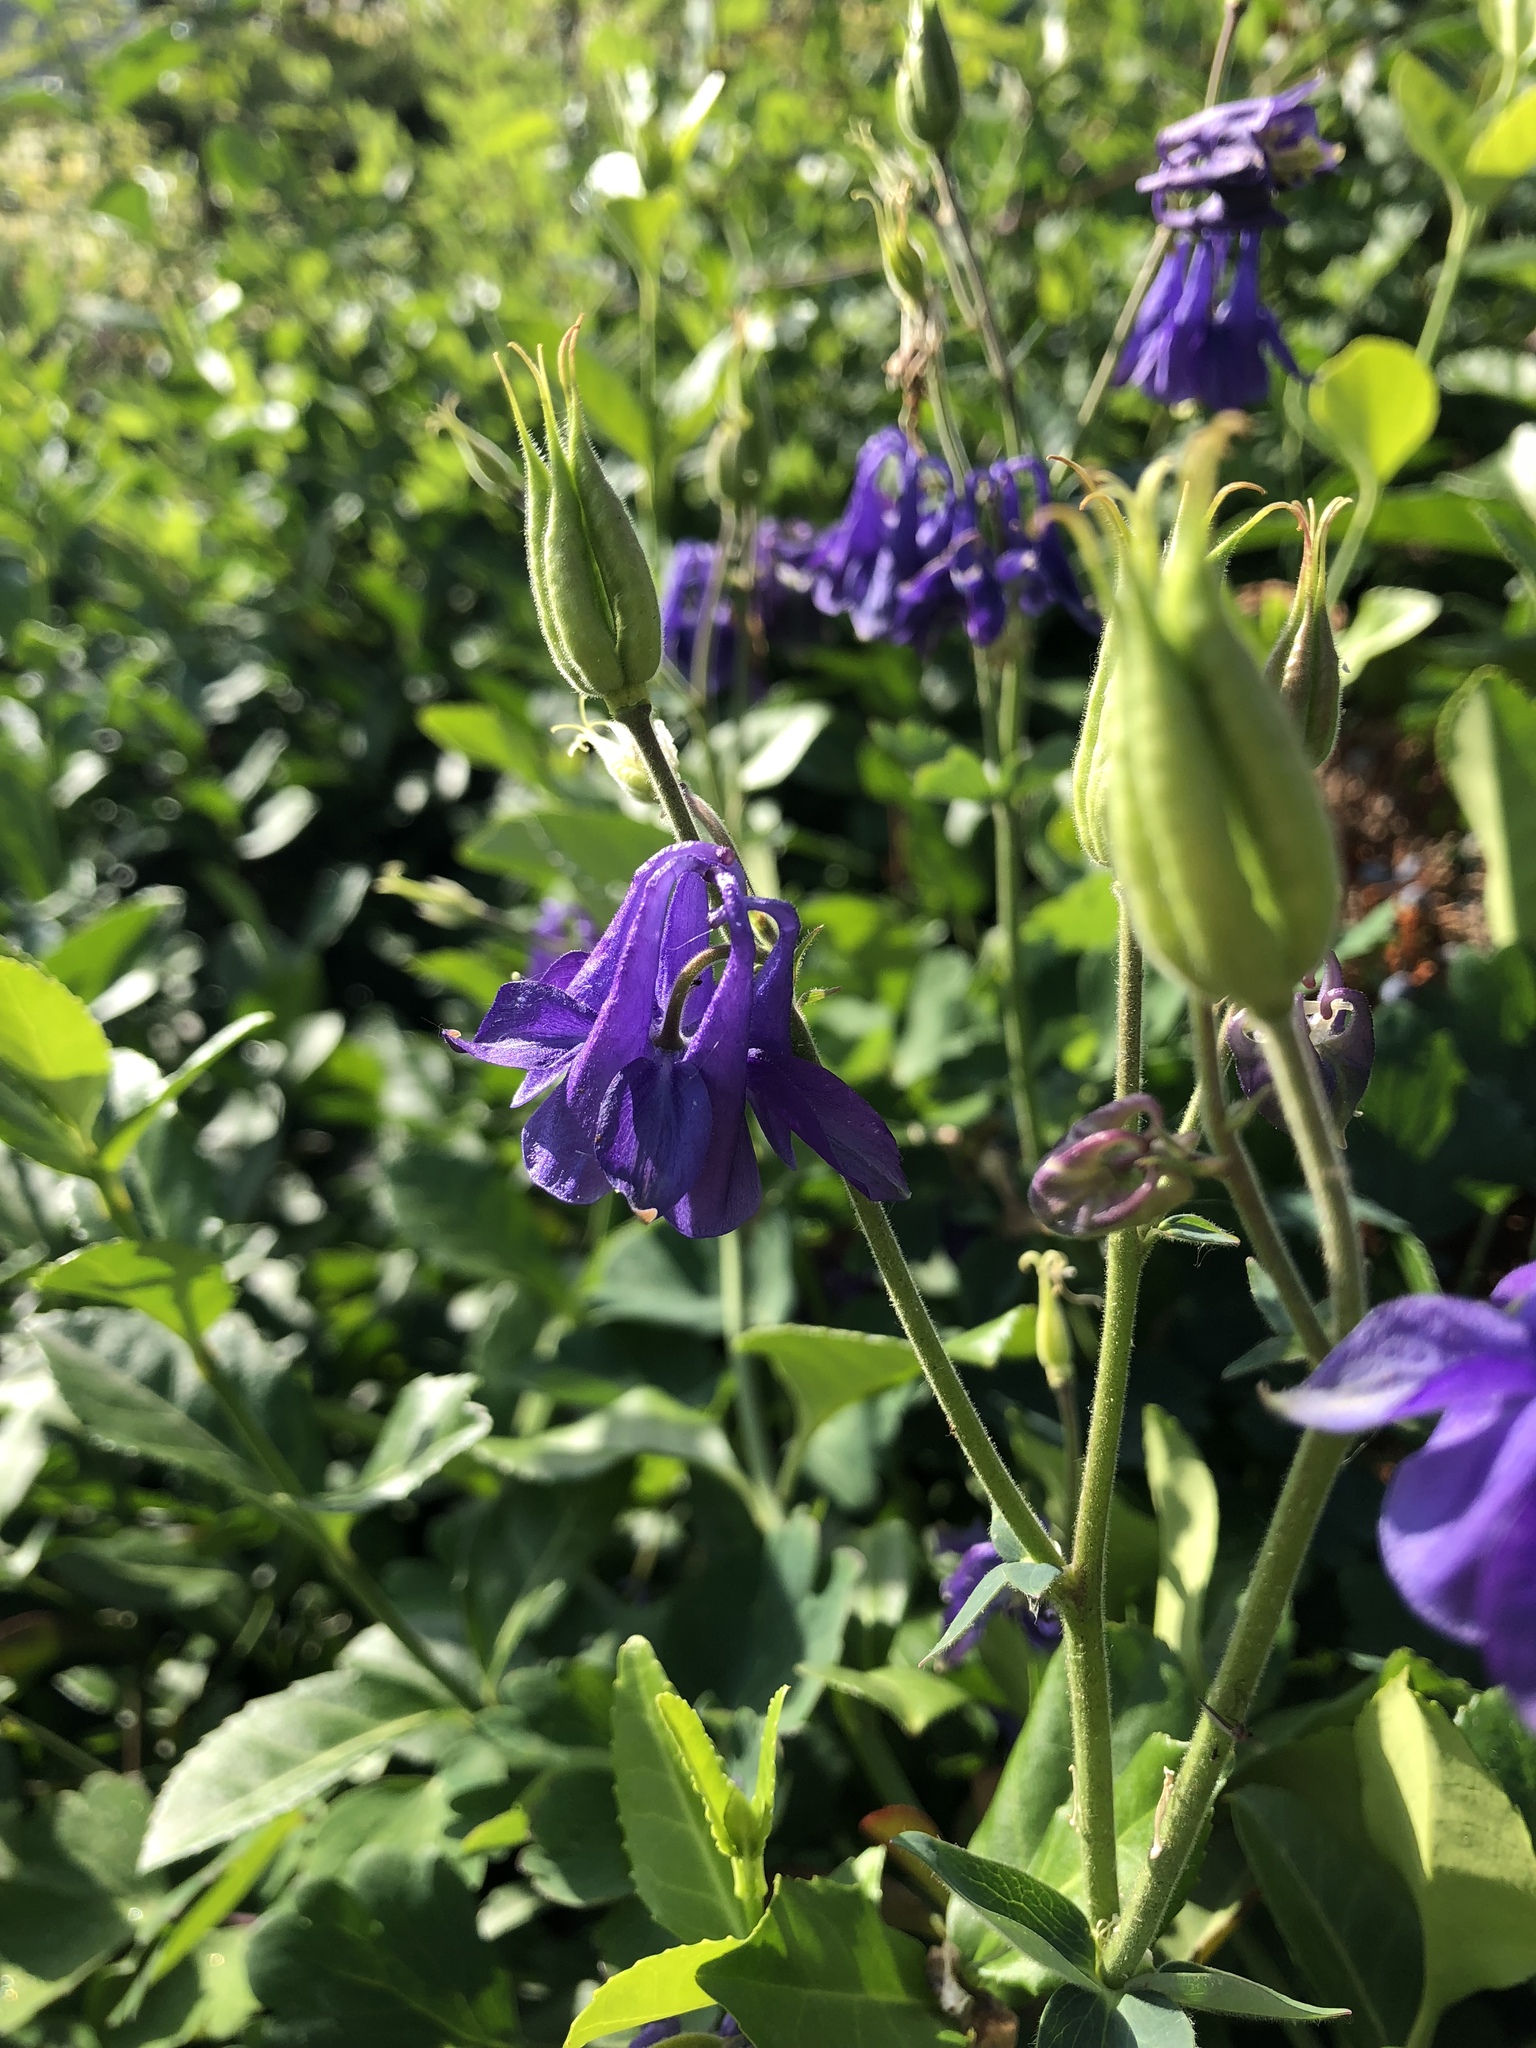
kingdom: Plantae
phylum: Tracheophyta
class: Magnoliopsida
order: Ranunculales
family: Ranunculaceae
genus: Aquilegia
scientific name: Aquilegia vulgaris
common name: Columbine
